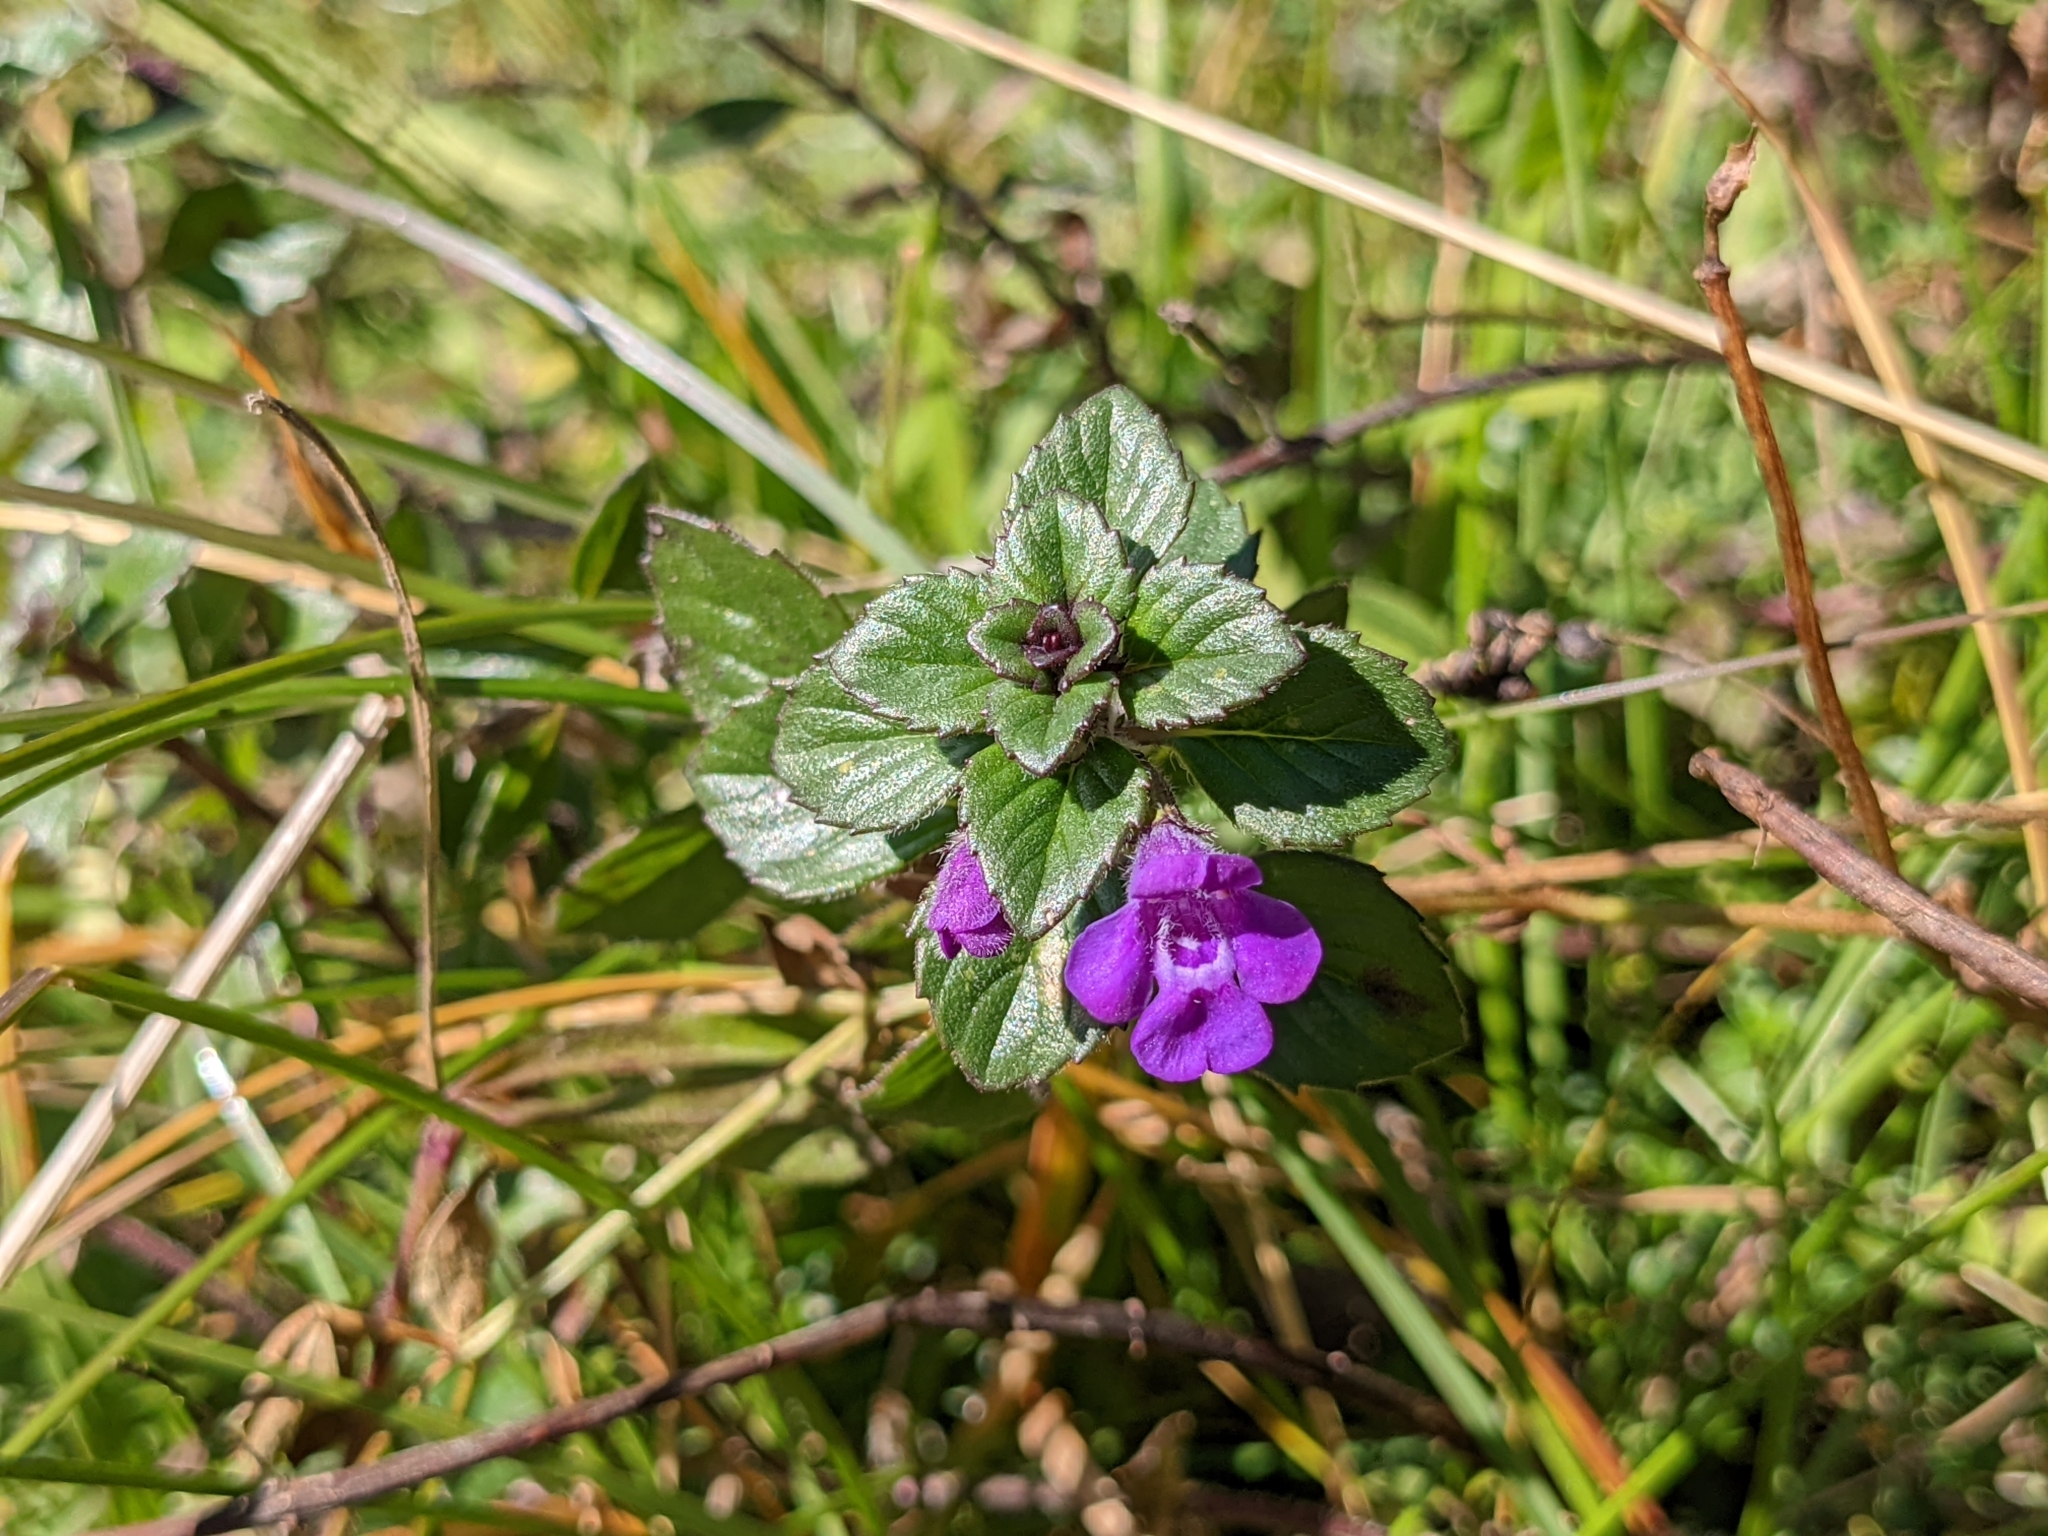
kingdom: Plantae
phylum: Tracheophyta
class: Magnoliopsida
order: Lamiales
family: Lamiaceae
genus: Clinopodium
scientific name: Clinopodium alpinum
